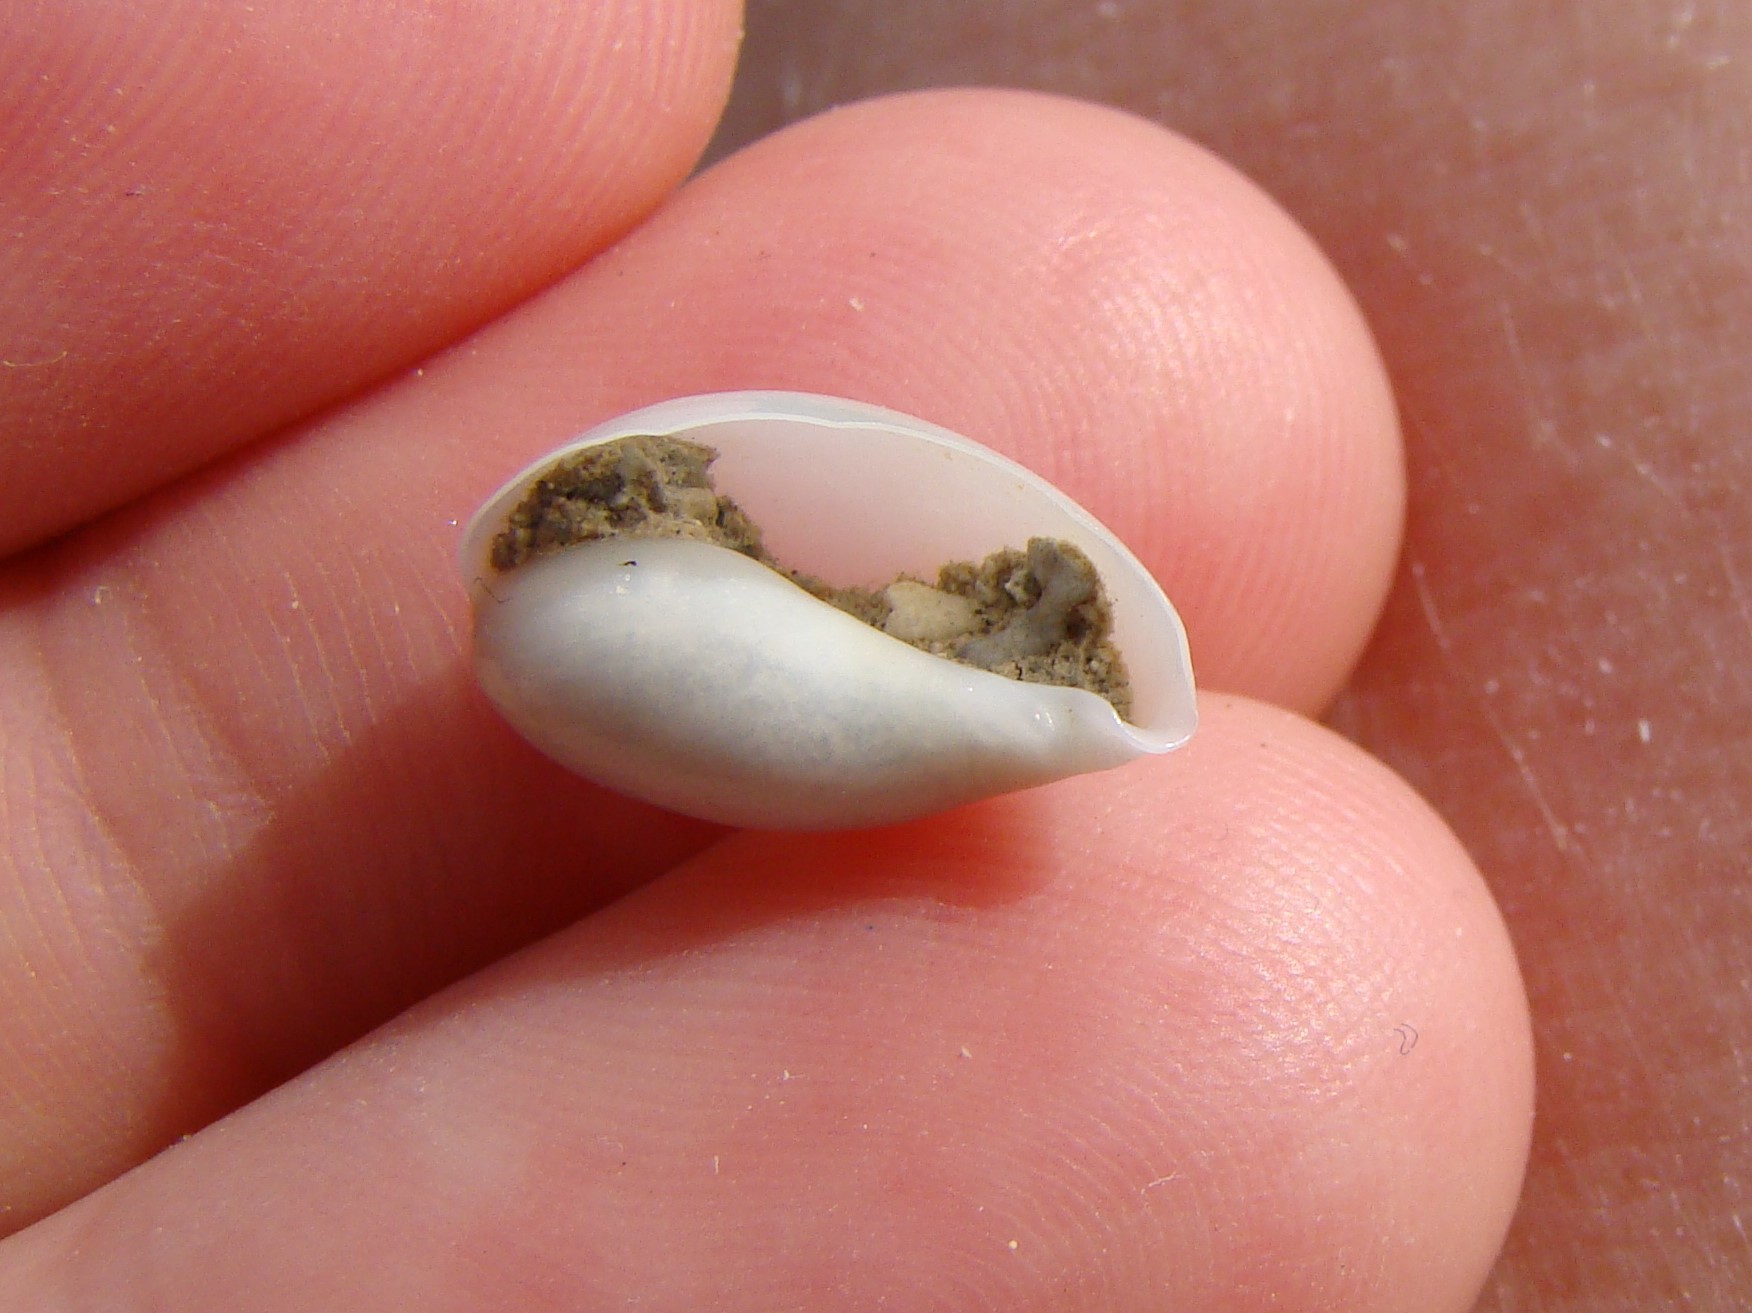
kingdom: Animalia
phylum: Mollusca
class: Gastropoda
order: Littorinimorpha
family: Cypraeidae
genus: Monetaria
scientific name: Monetaria
